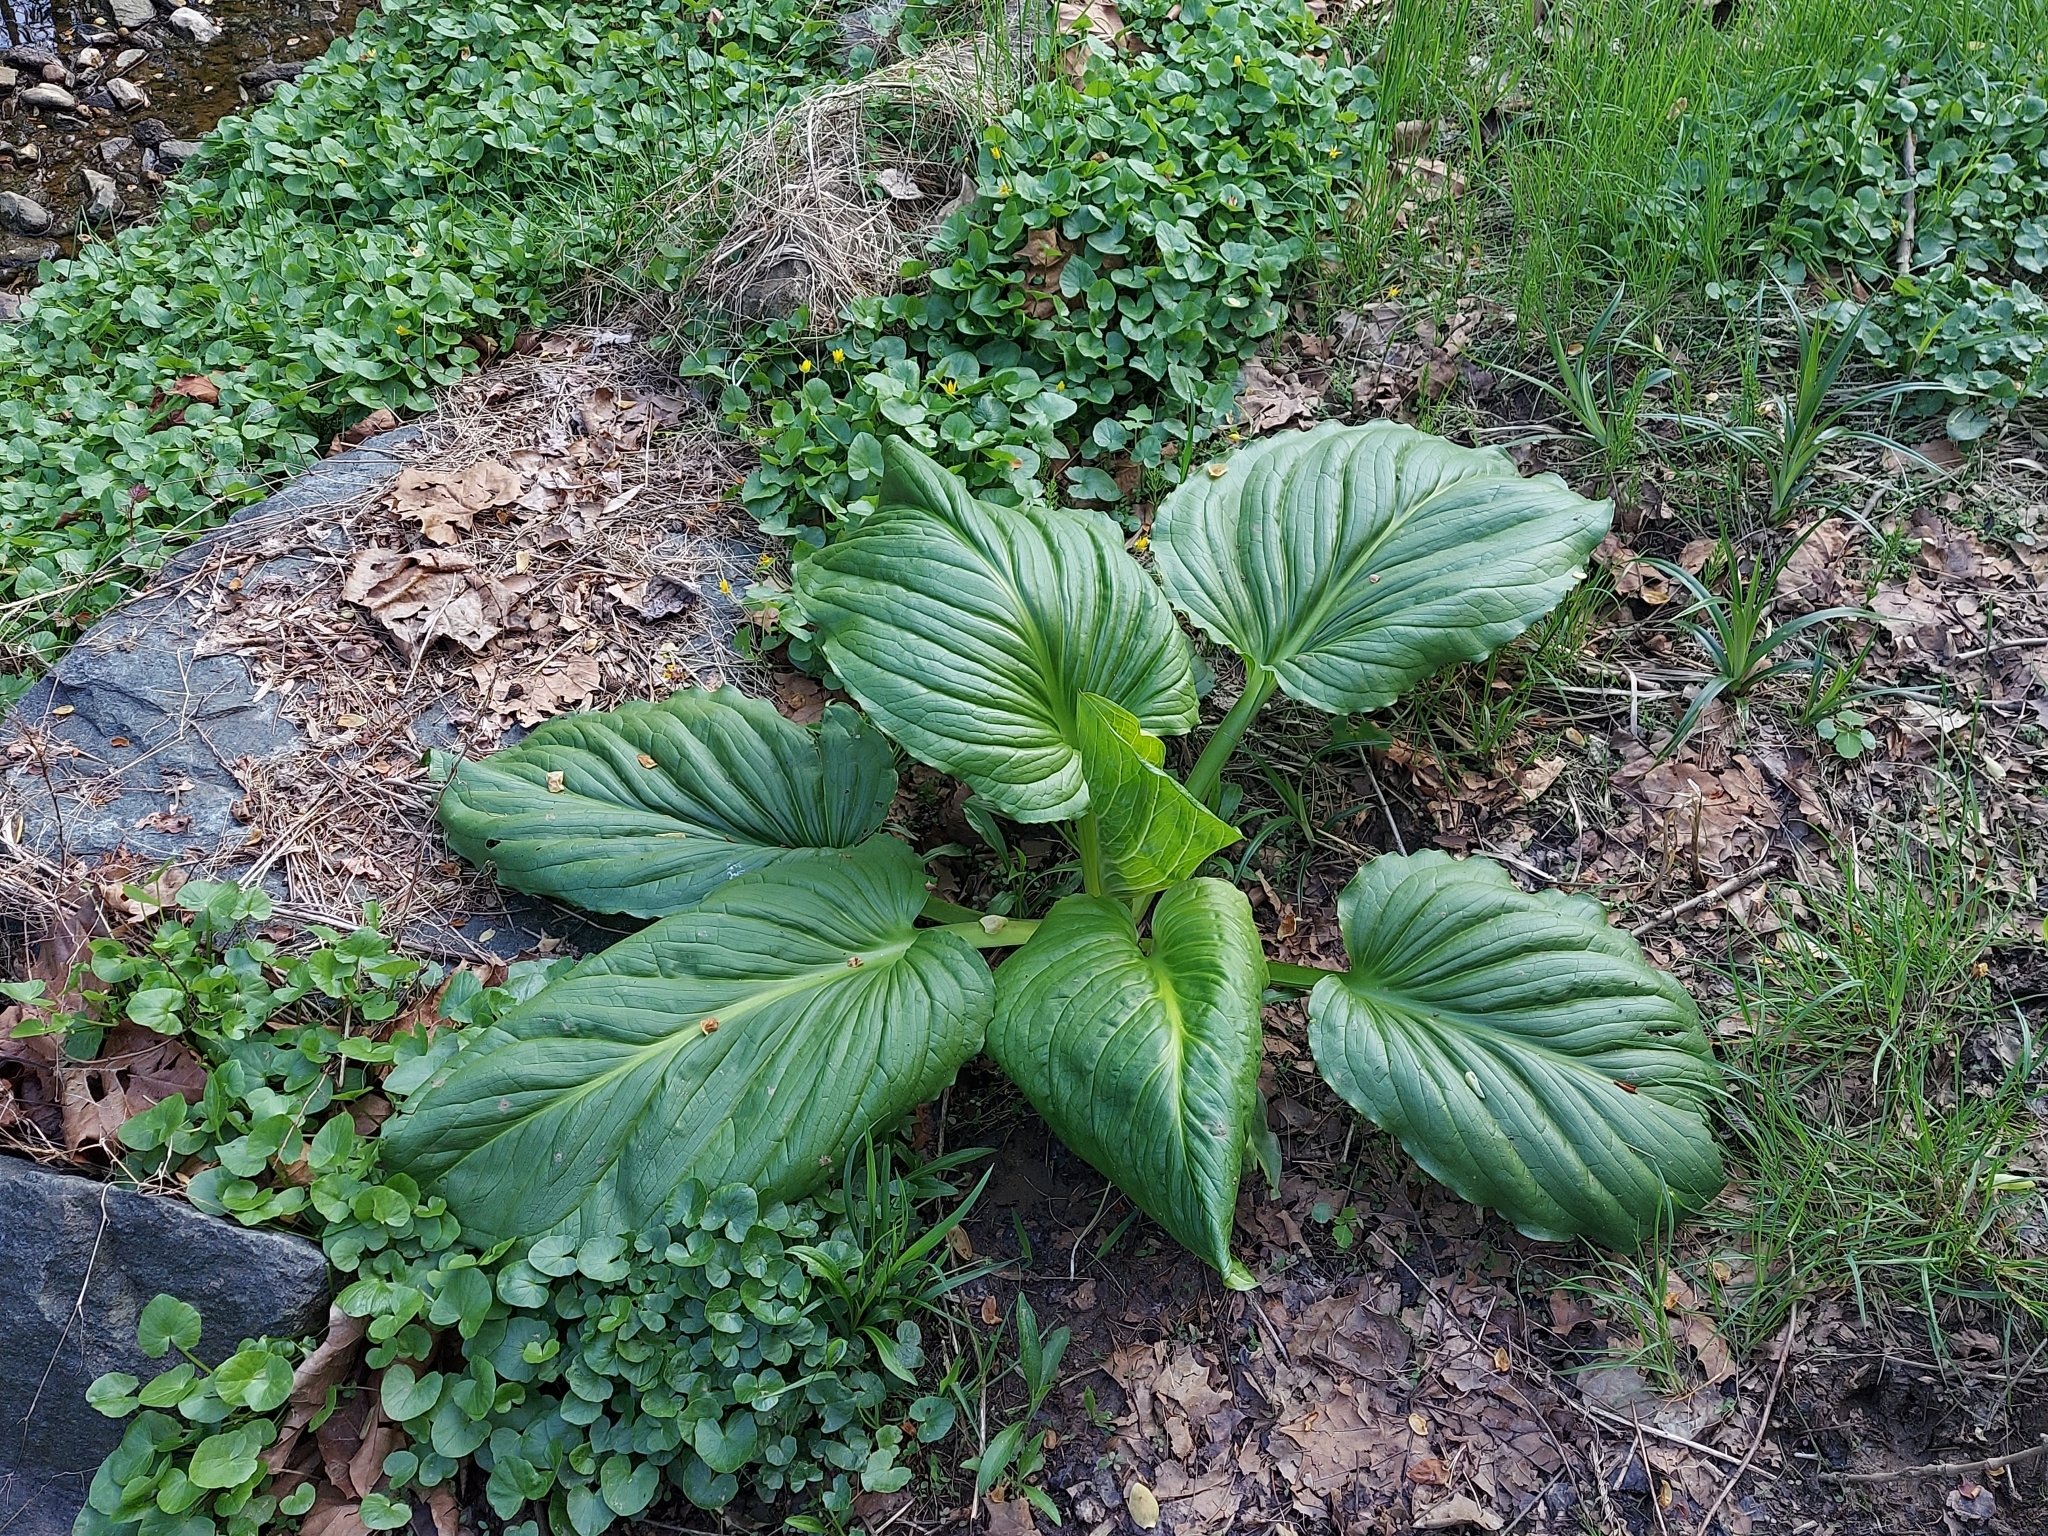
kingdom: Plantae
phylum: Tracheophyta
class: Liliopsida
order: Alismatales
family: Araceae
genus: Symplocarpus
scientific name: Symplocarpus foetidus
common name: Eastern skunk cabbage
